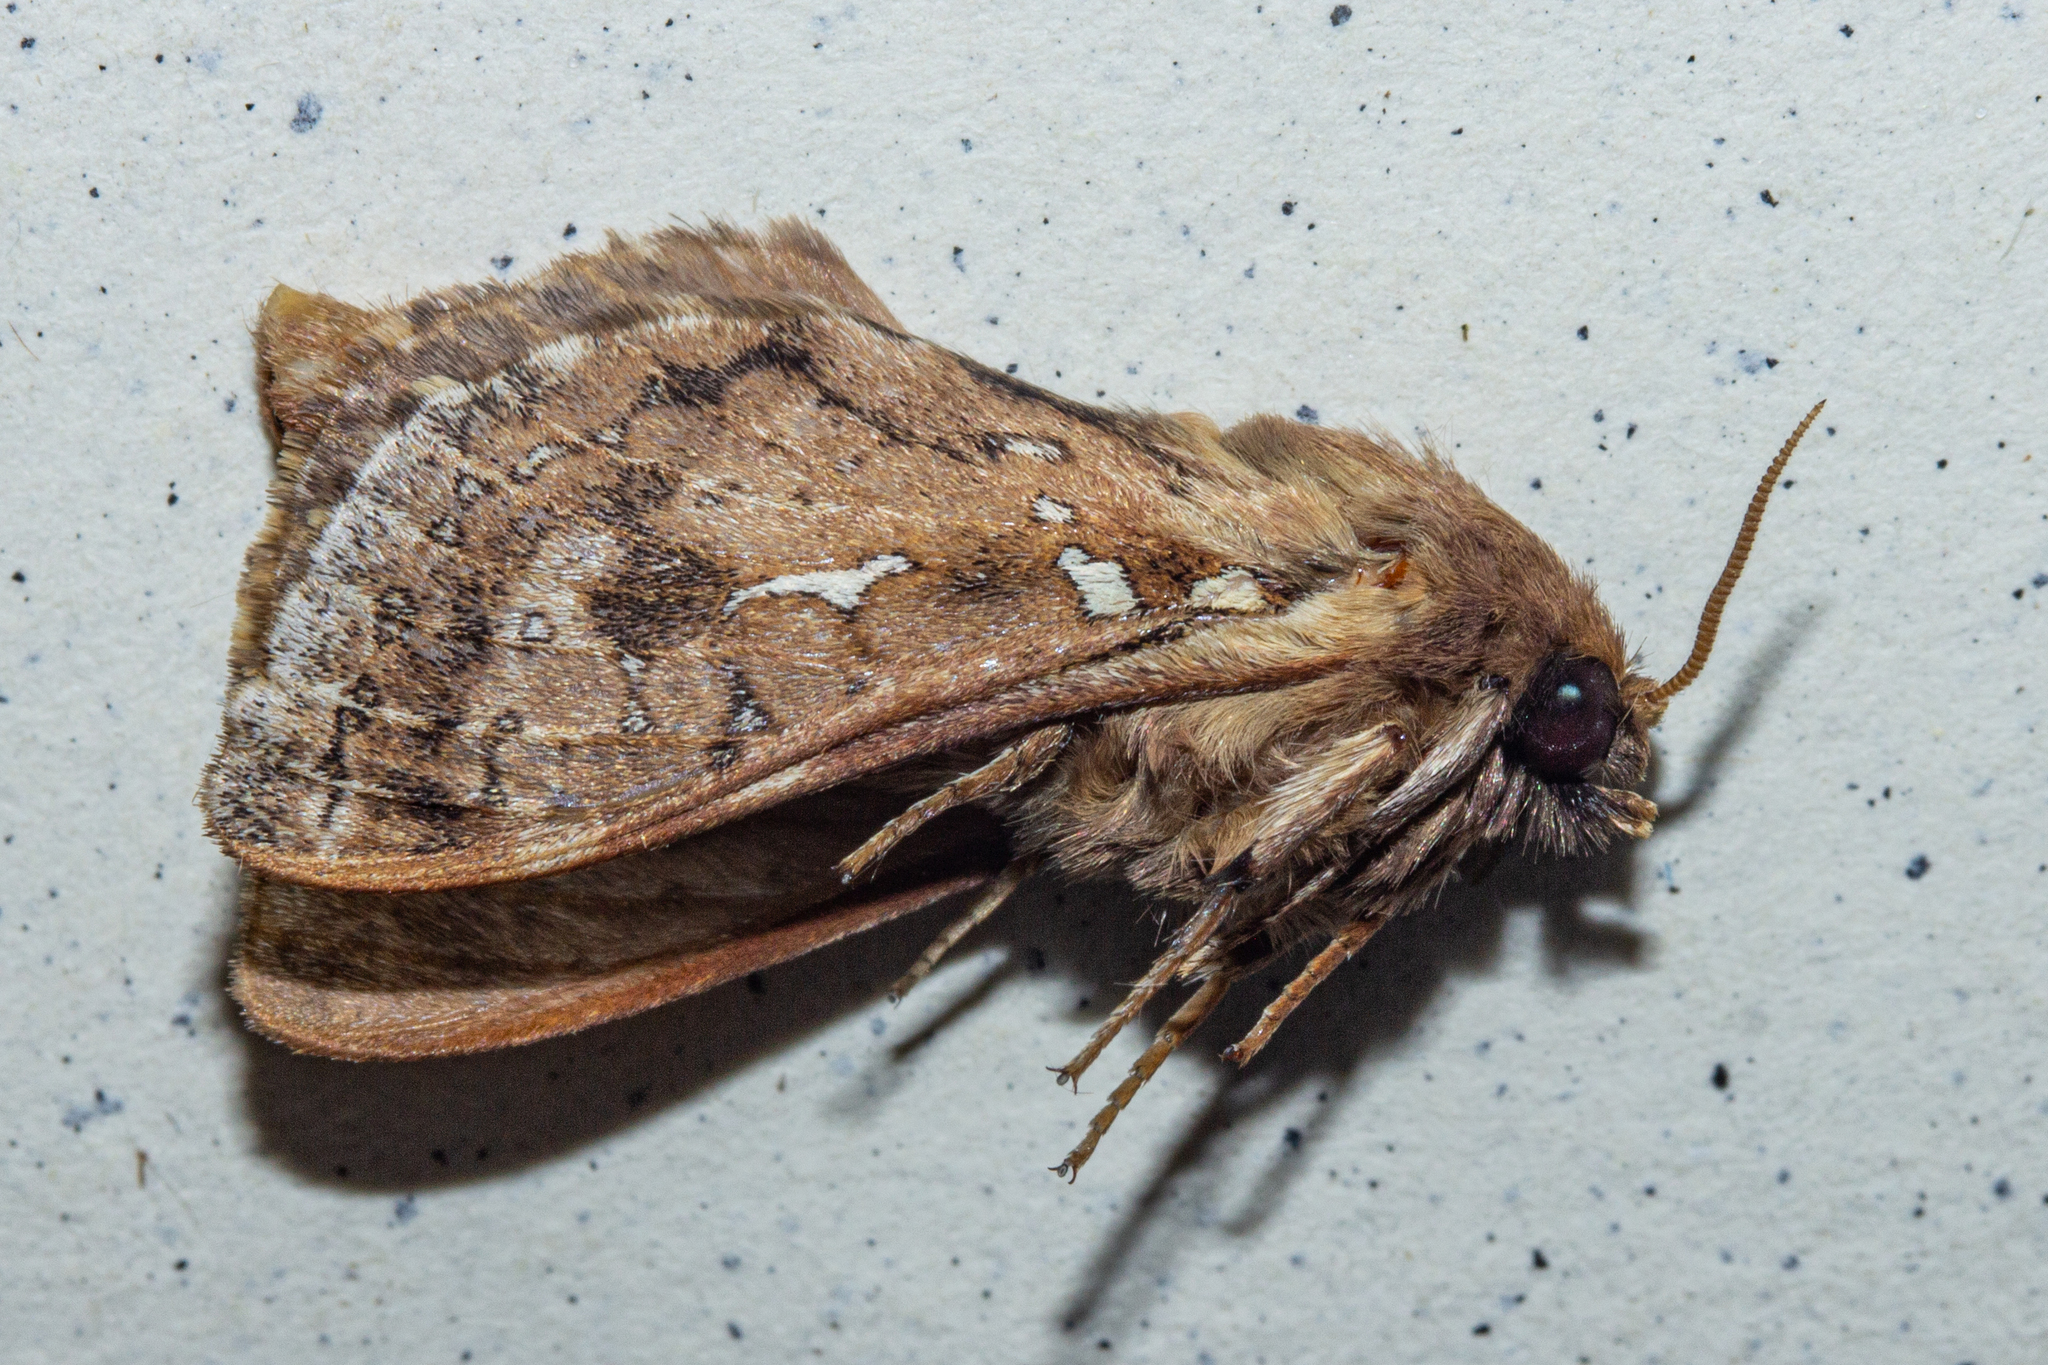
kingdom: Animalia
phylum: Arthropoda
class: Insecta
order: Lepidoptera
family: Hepialidae
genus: Wiseana
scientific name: Wiseana cervinata
